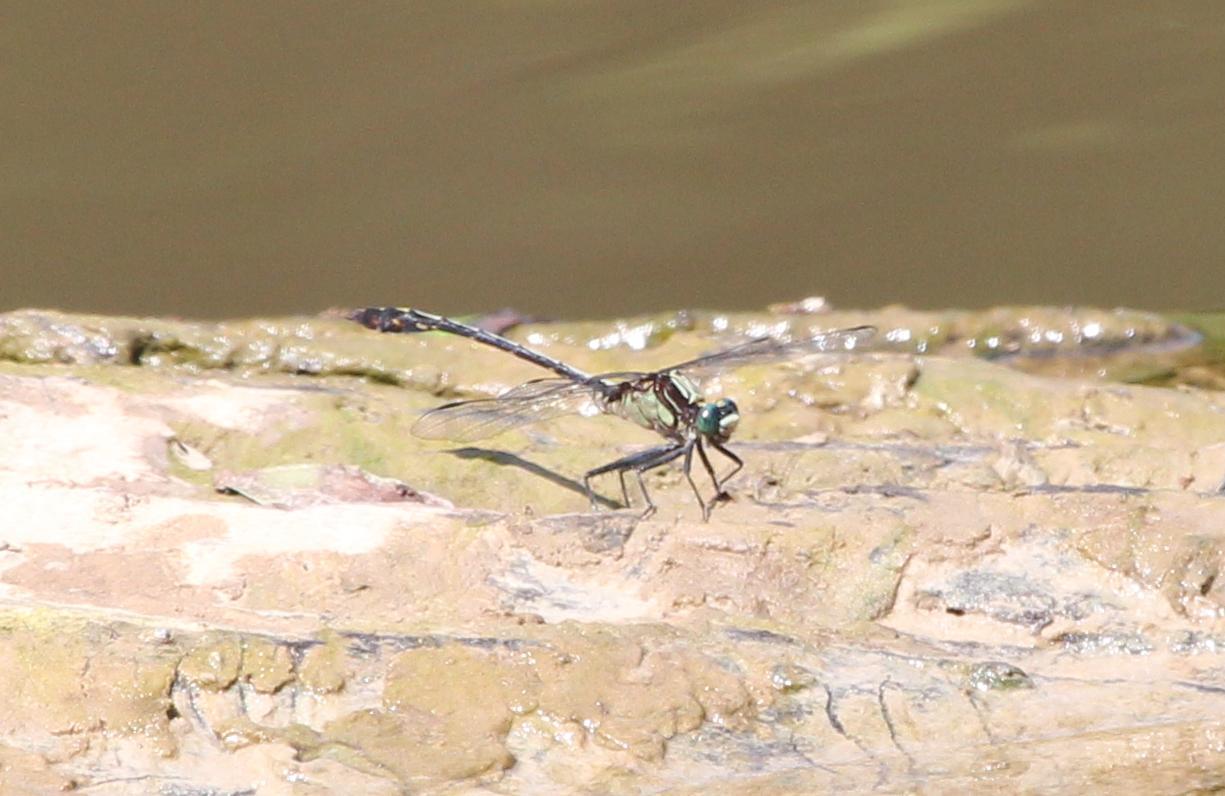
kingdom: Animalia
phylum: Arthropoda
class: Insecta
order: Odonata
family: Gomphidae
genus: Dromogomphus
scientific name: Dromogomphus spinosus
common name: Black-shouldered spinyleg
